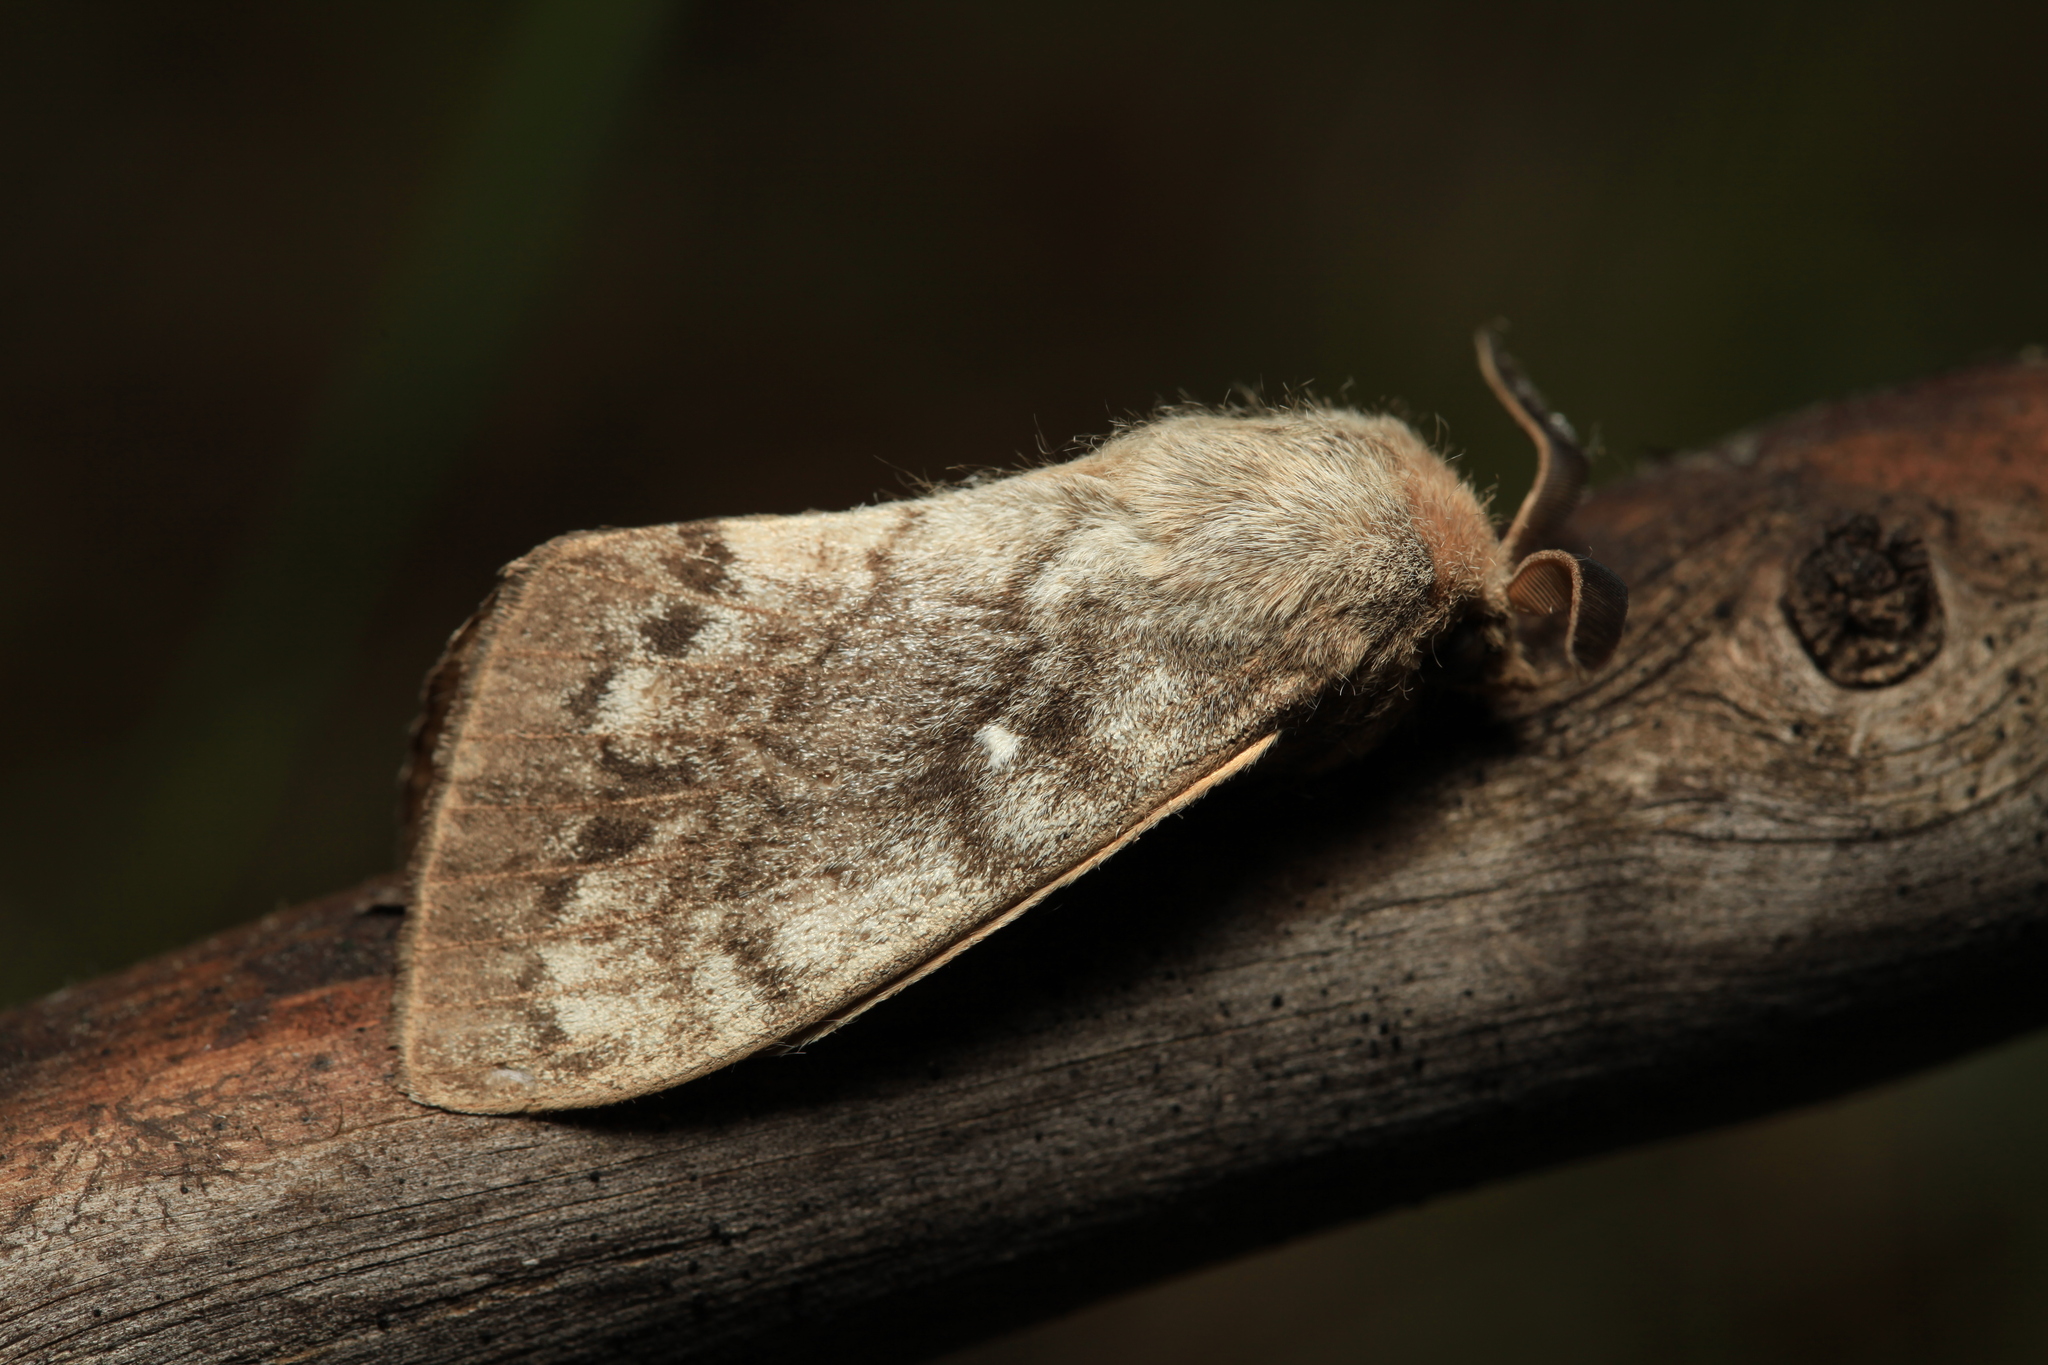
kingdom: Animalia
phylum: Arthropoda
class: Insecta
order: Lepidoptera
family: Lasiocampidae
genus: Dendrolimus
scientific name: Dendrolimus sibiricus
